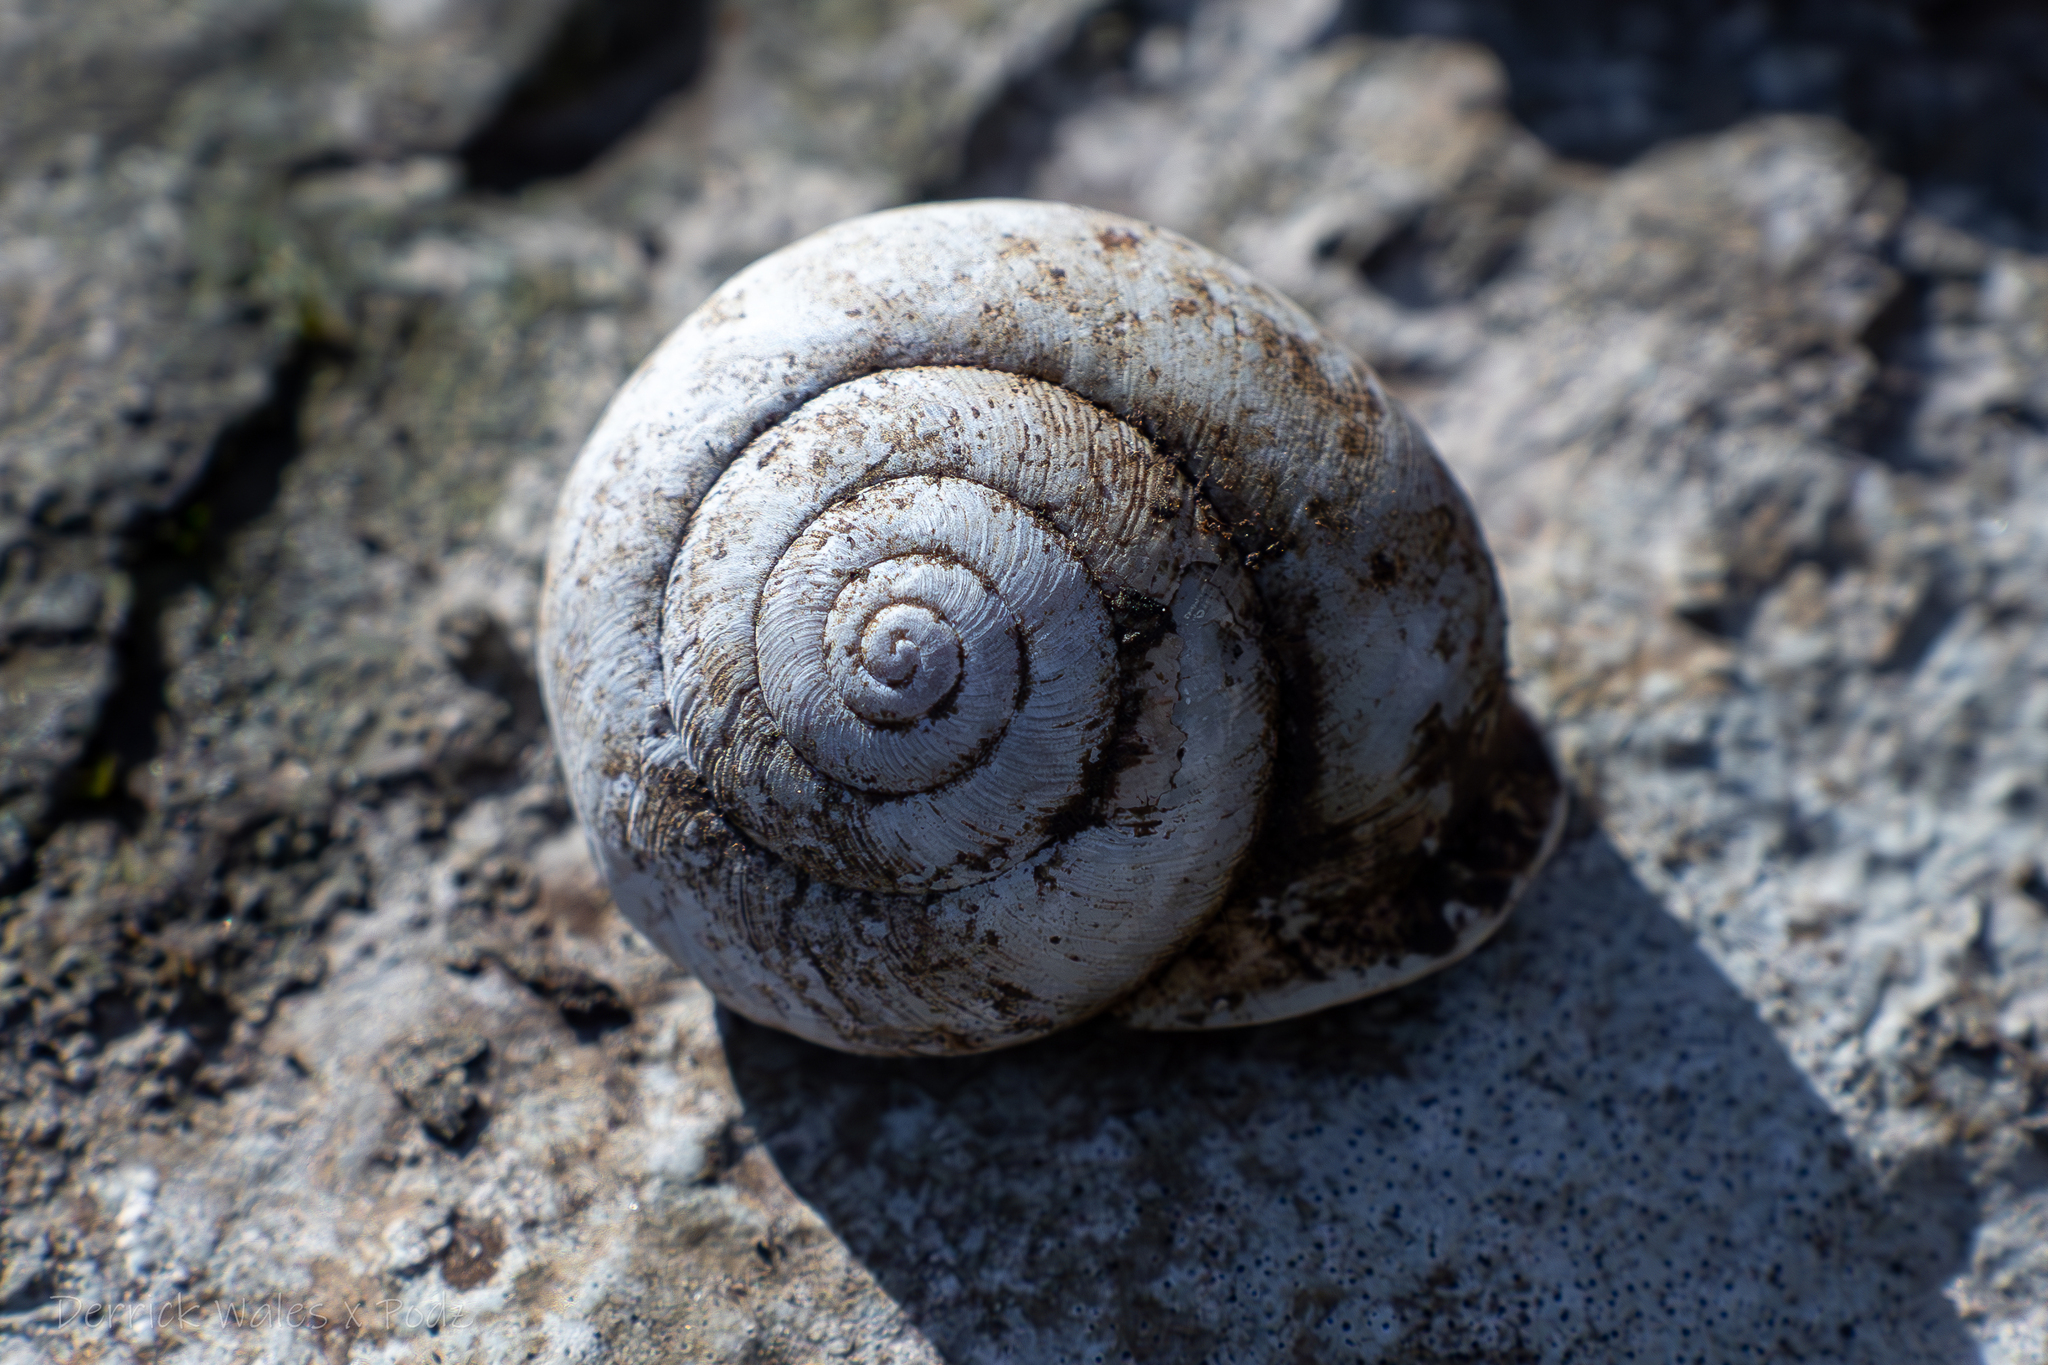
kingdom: Animalia
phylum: Mollusca
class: Gastropoda
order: Stylommatophora
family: Polygyridae
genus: Neohelix
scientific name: Neohelix albolabris
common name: Eastern whitelip
